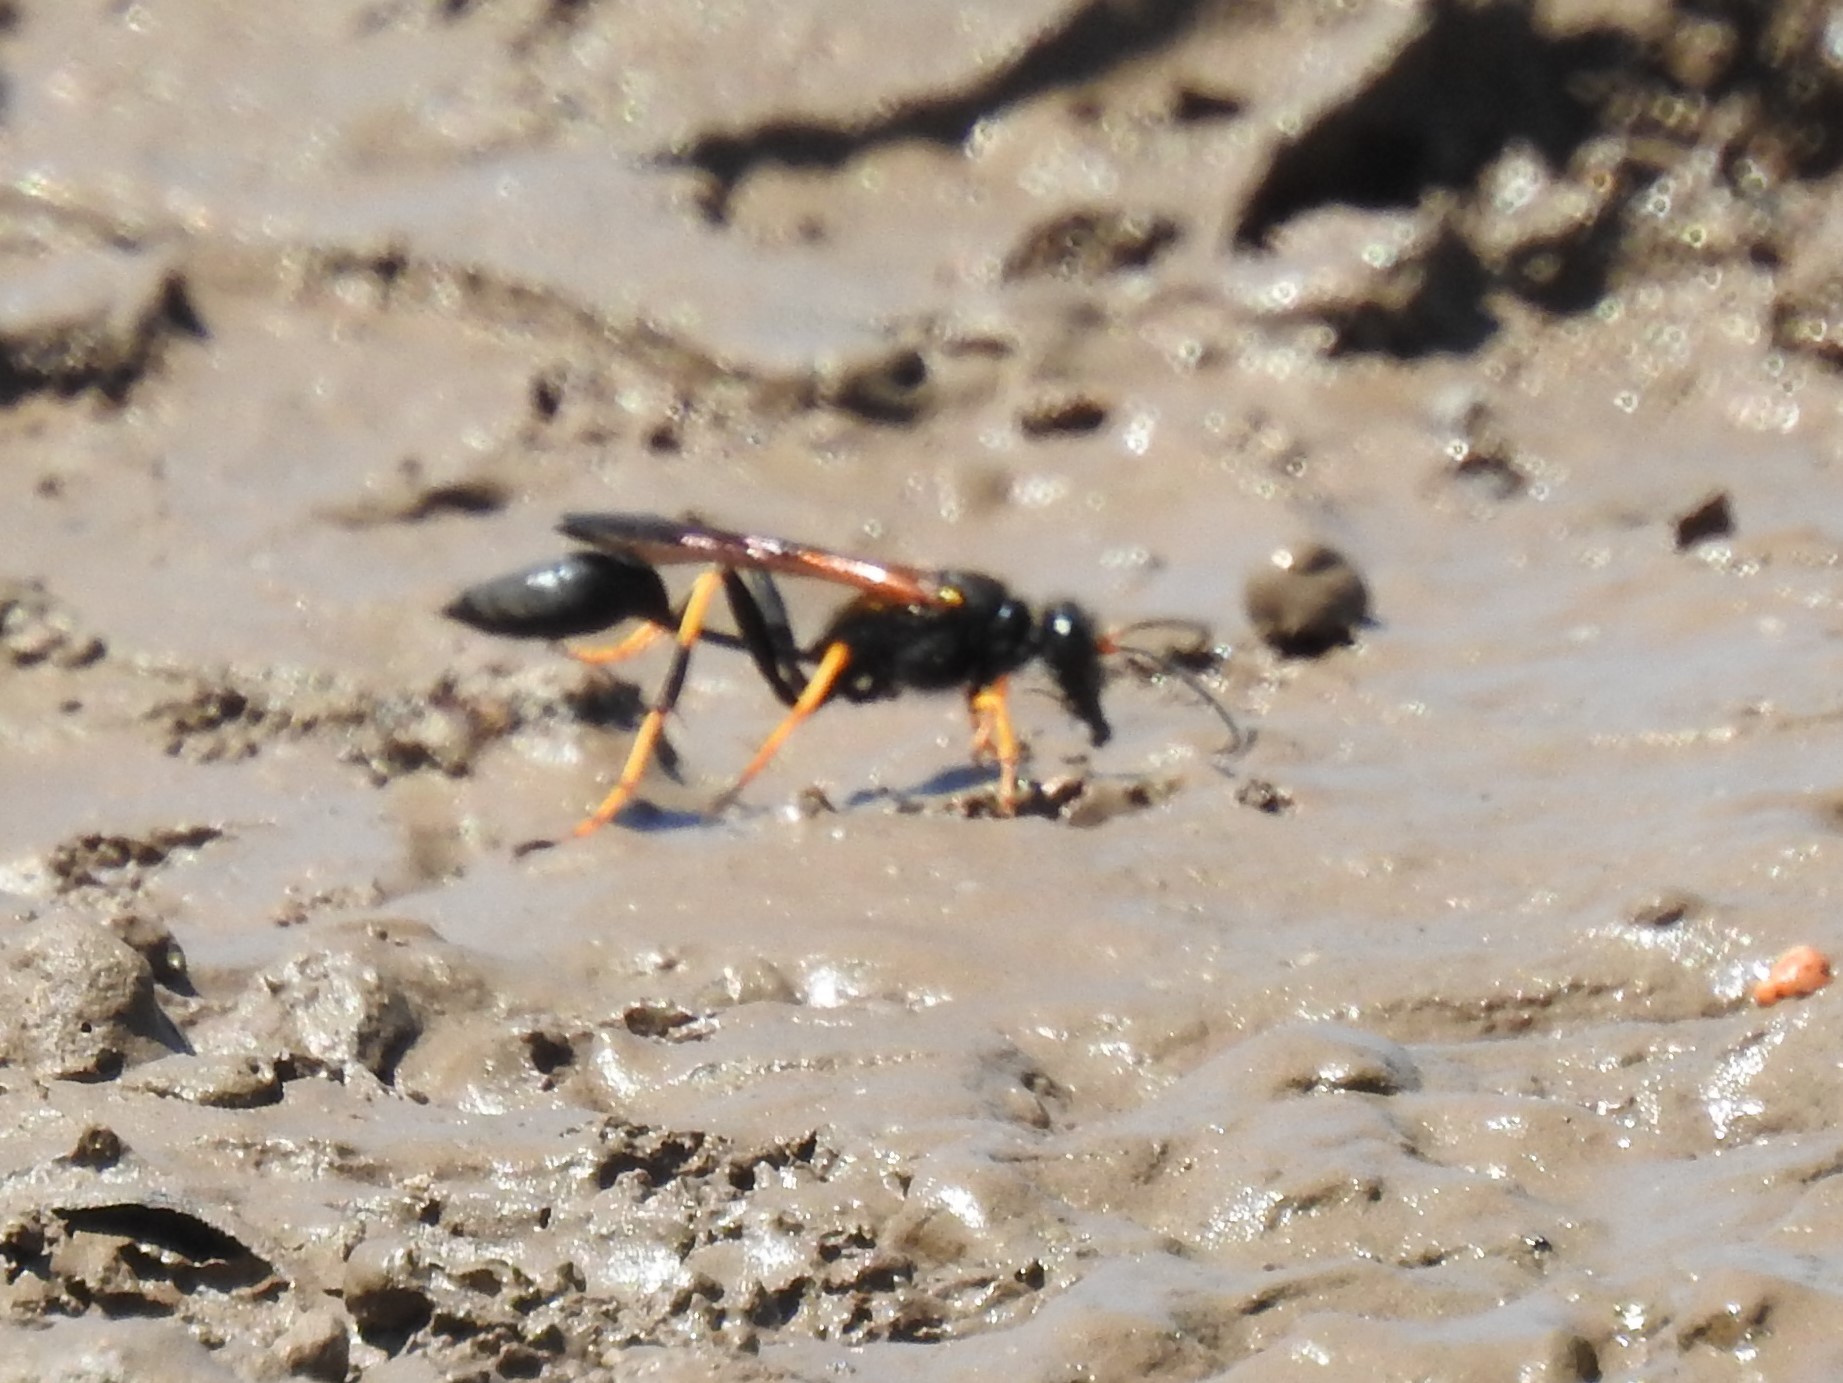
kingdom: Animalia
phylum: Arthropoda
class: Insecta
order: Hymenoptera
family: Sphecidae
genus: Sceliphron
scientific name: Sceliphron caementarium
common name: Mud dauber
